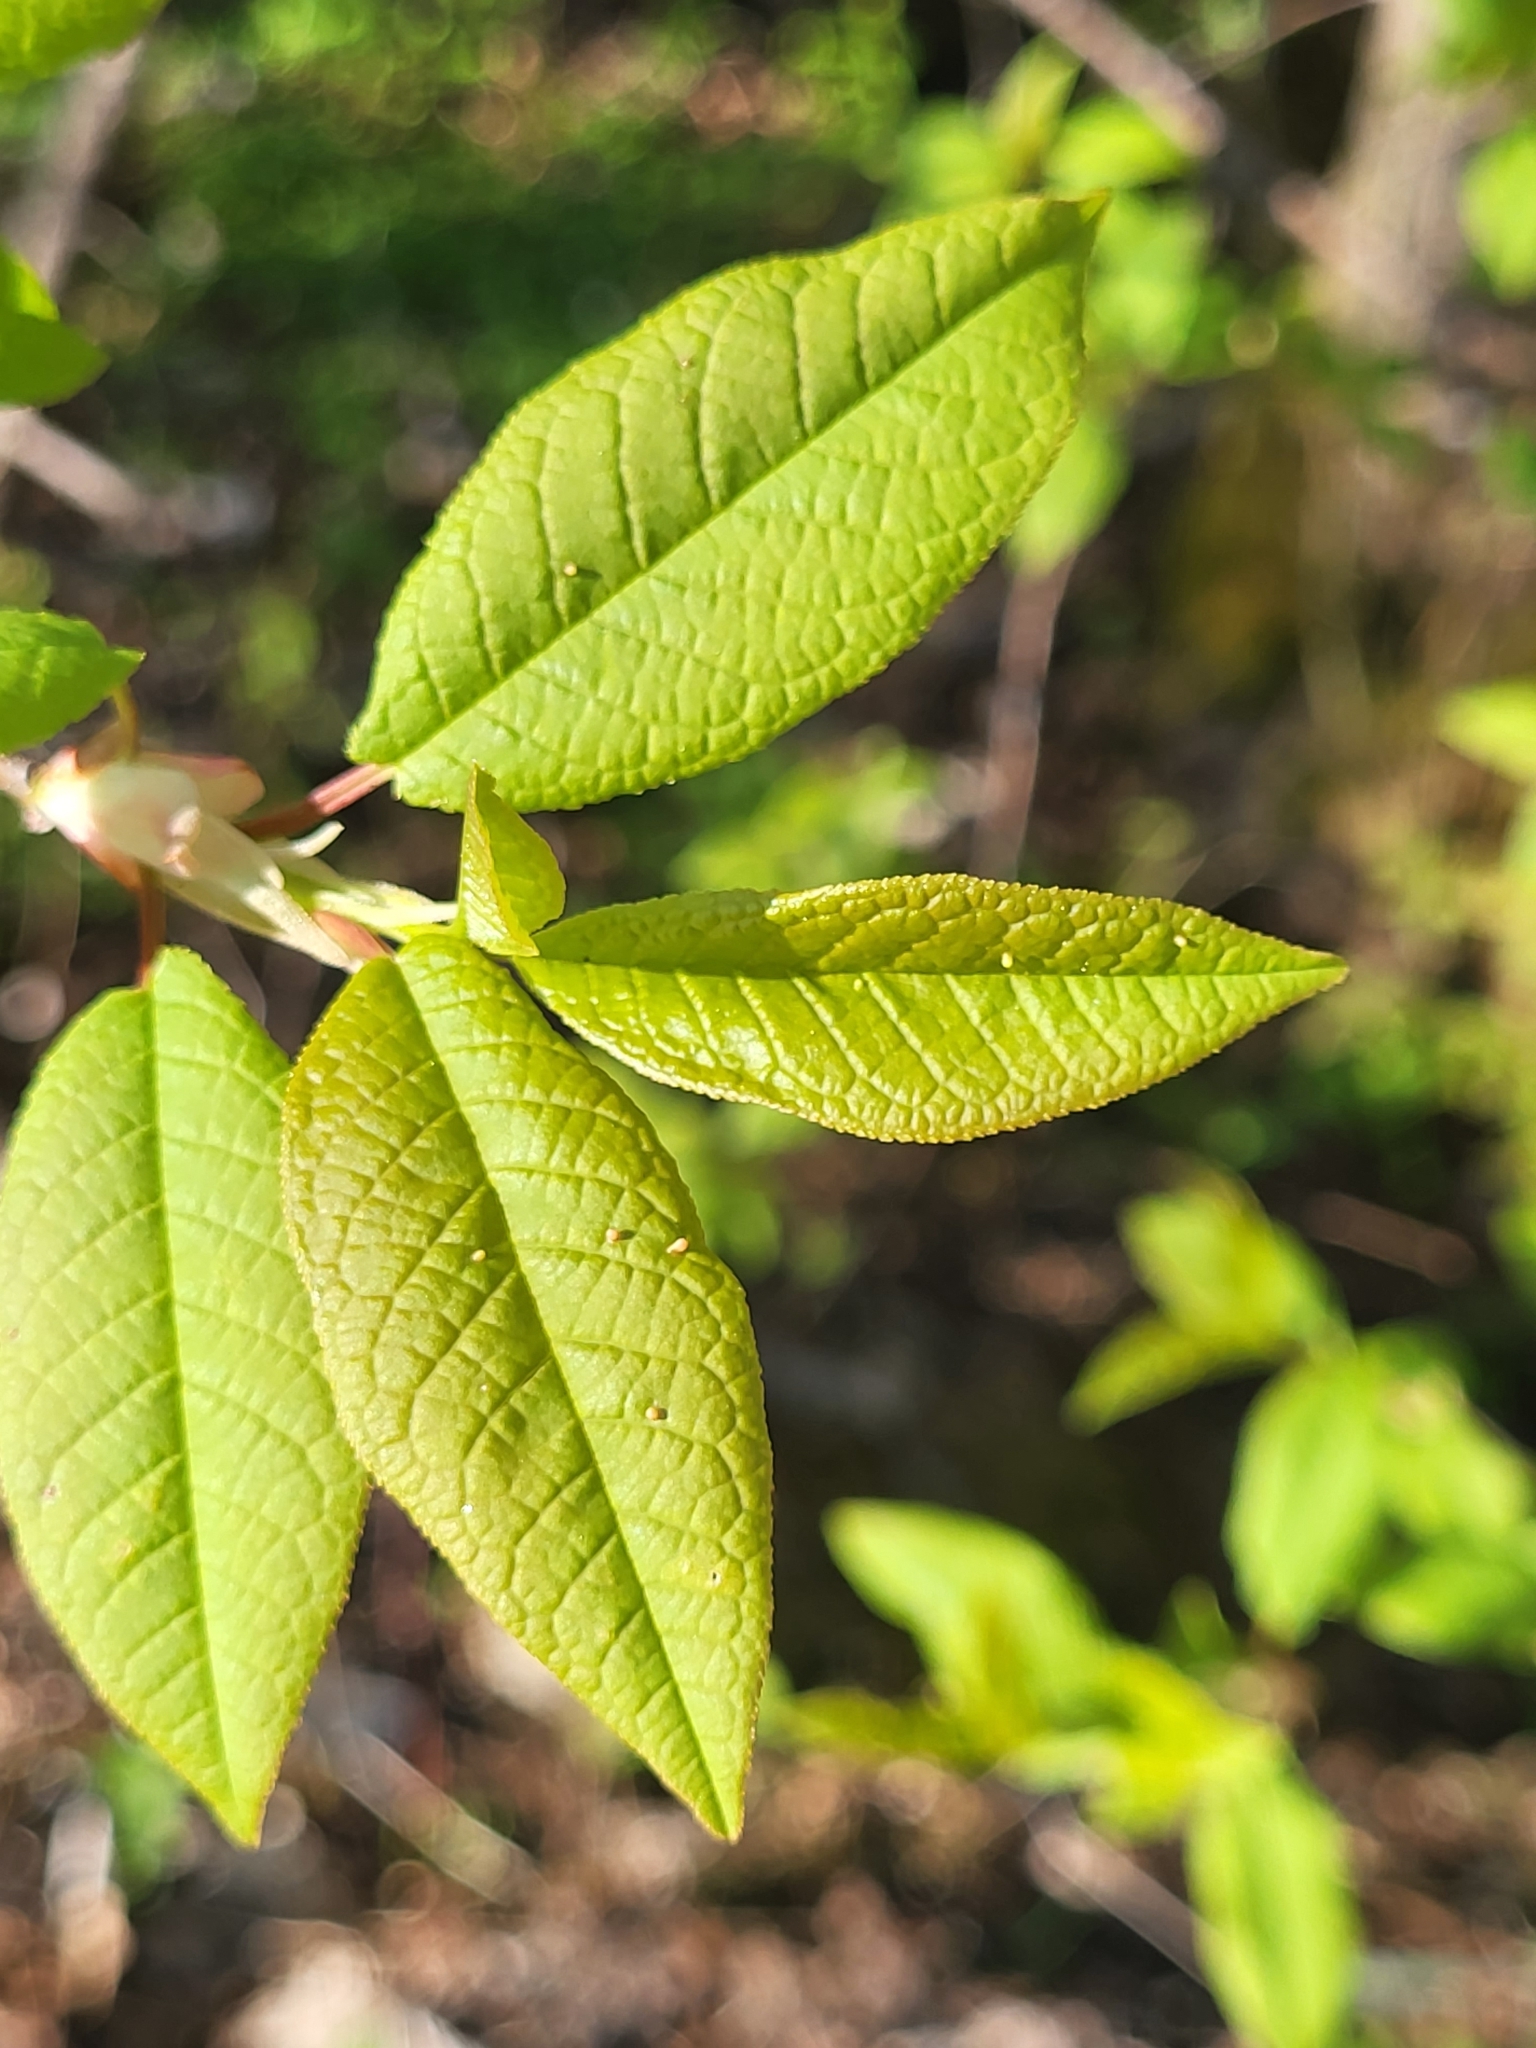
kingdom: Plantae
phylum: Tracheophyta
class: Magnoliopsida
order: Rosales
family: Rosaceae
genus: Prunus
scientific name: Prunus padus
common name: Bird cherry
